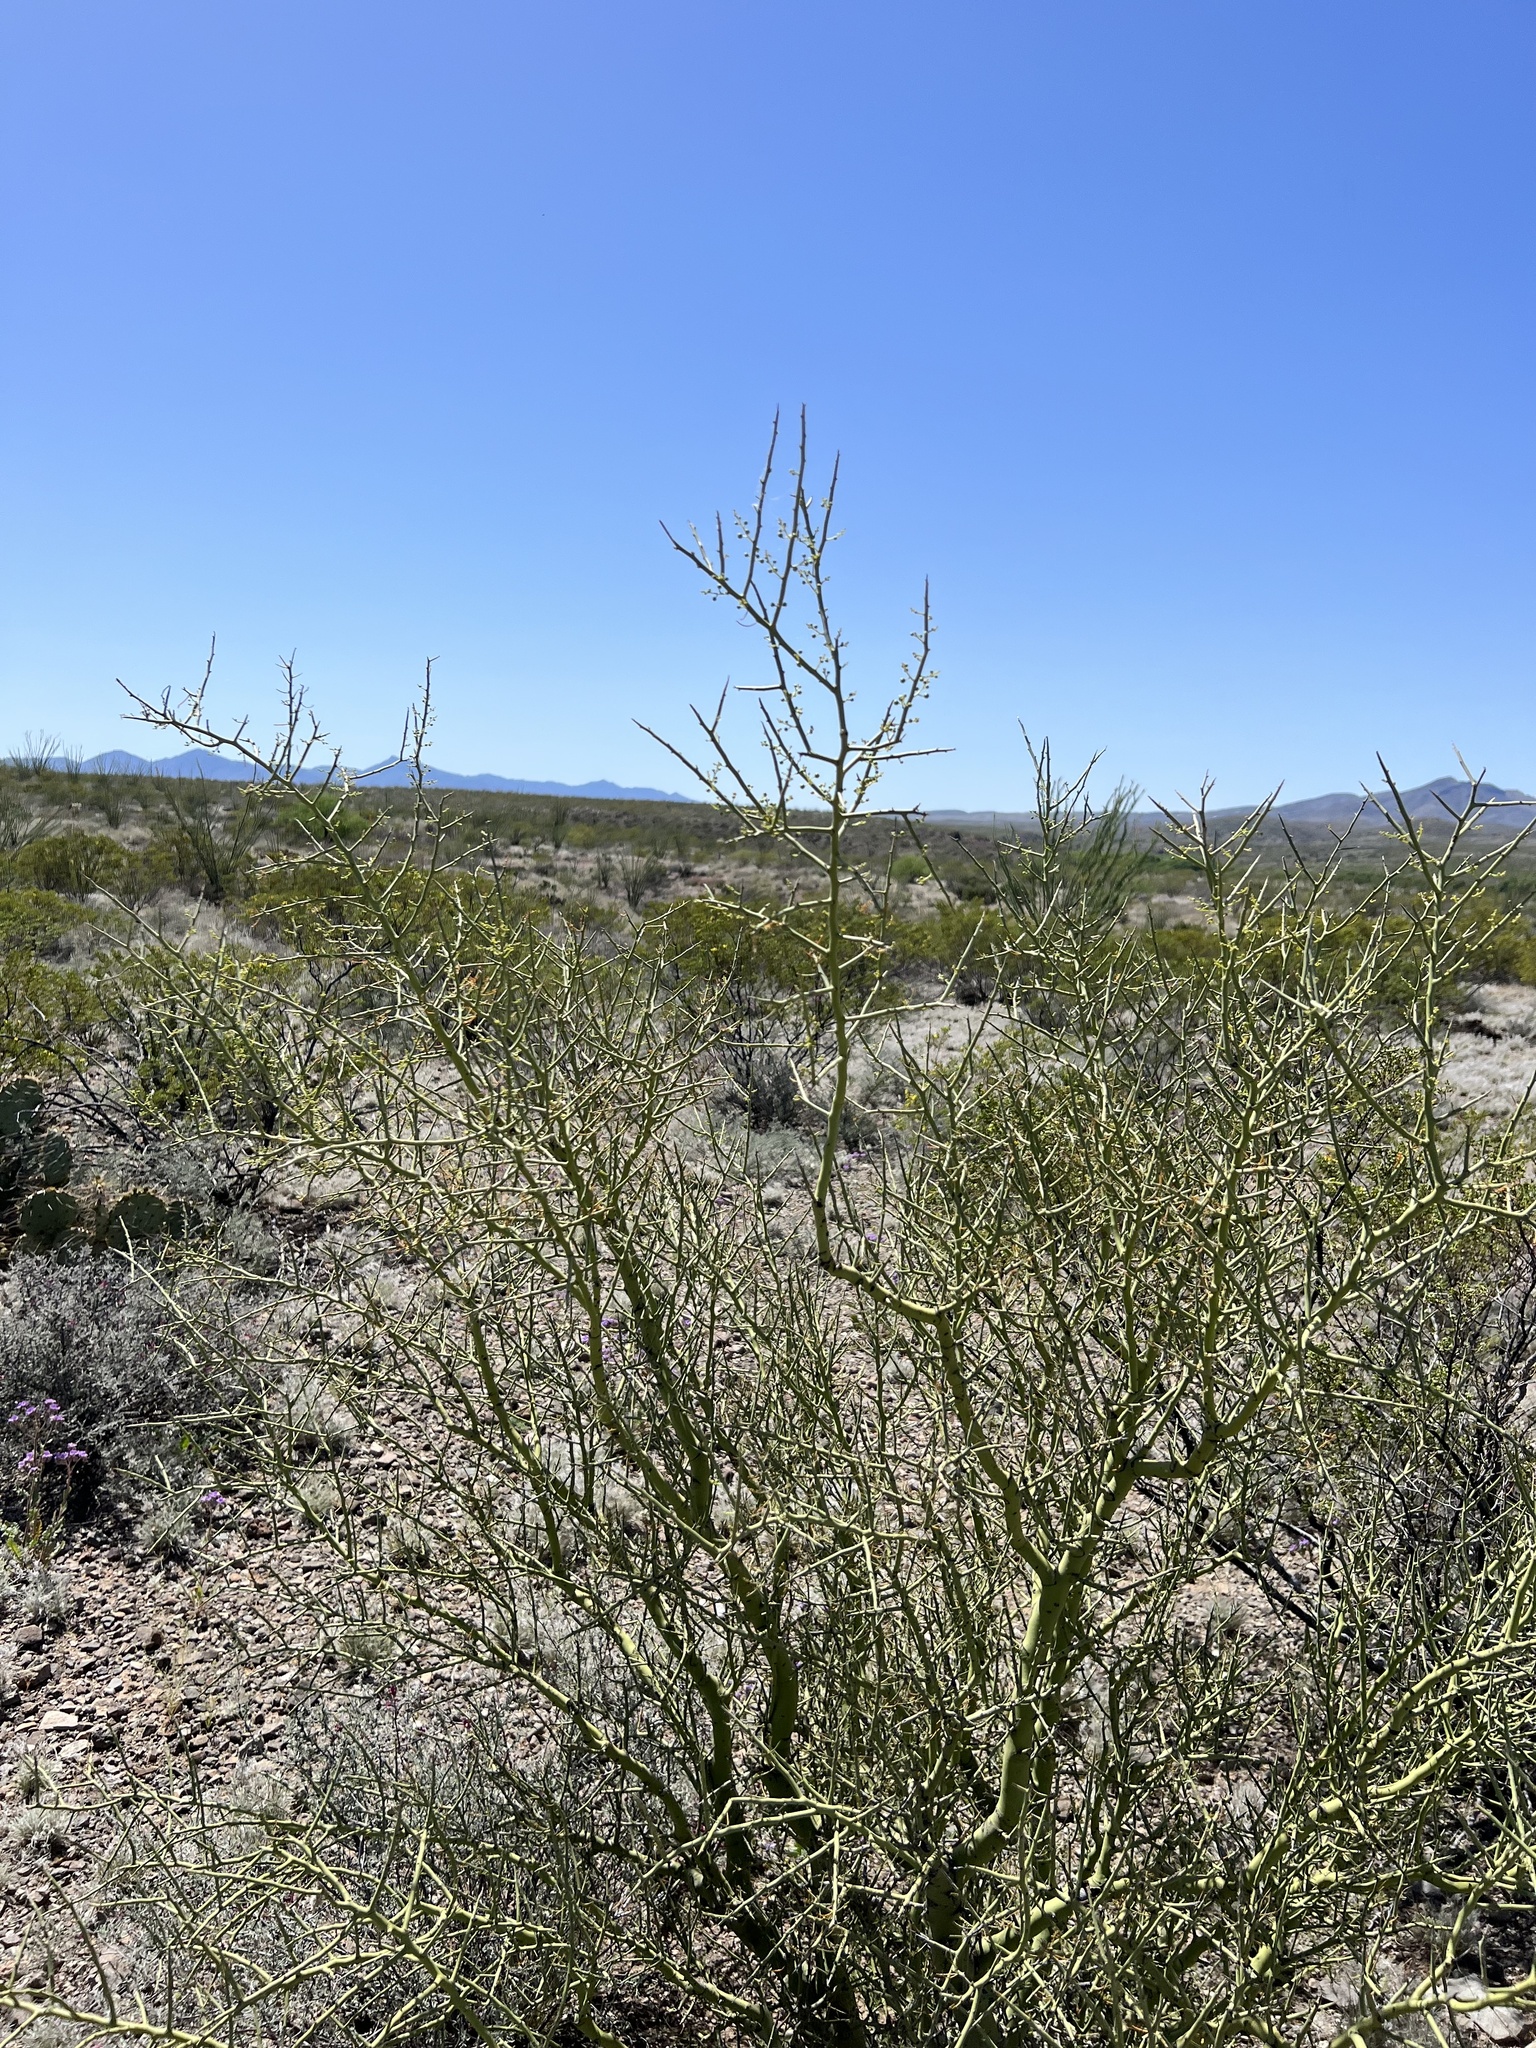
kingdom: Plantae
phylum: Tracheophyta
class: Magnoliopsida
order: Fabales
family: Fabaceae
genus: Parkinsonia
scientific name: Parkinsonia microphylla
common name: Yellow paloverde
